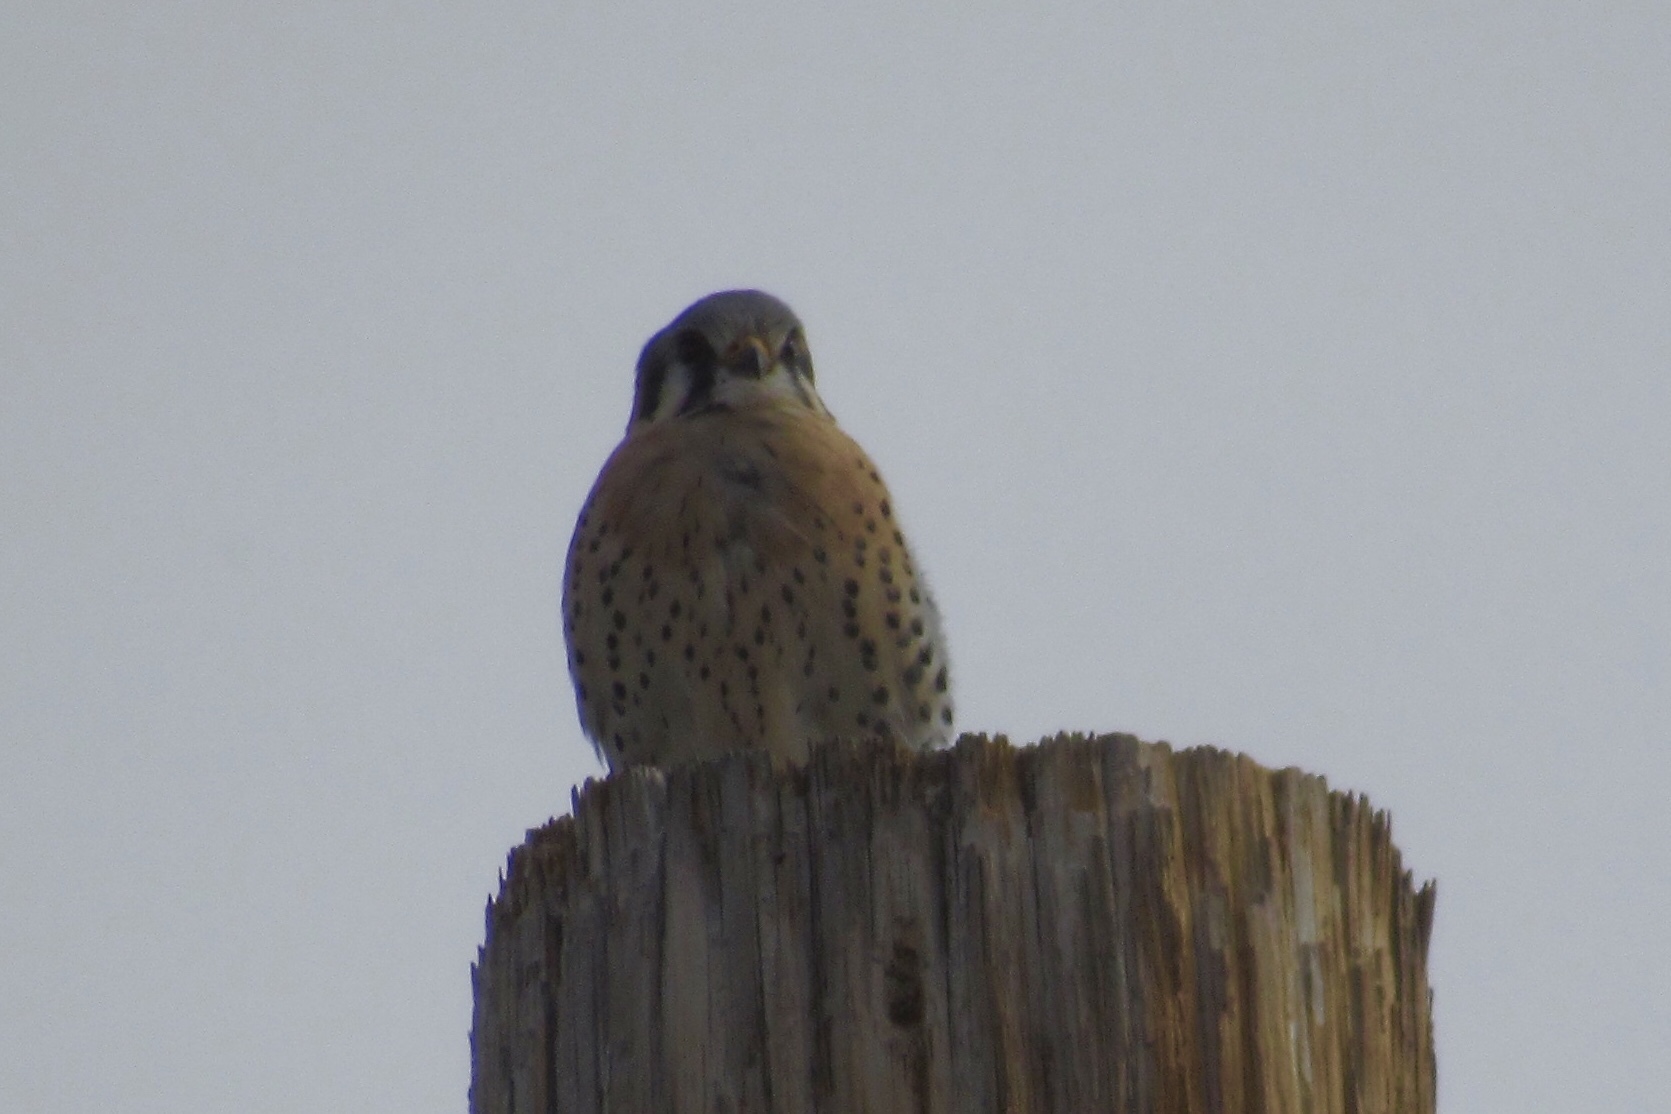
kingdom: Animalia
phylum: Chordata
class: Aves
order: Falconiformes
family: Falconidae
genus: Falco
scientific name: Falco sparverius
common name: American kestrel
